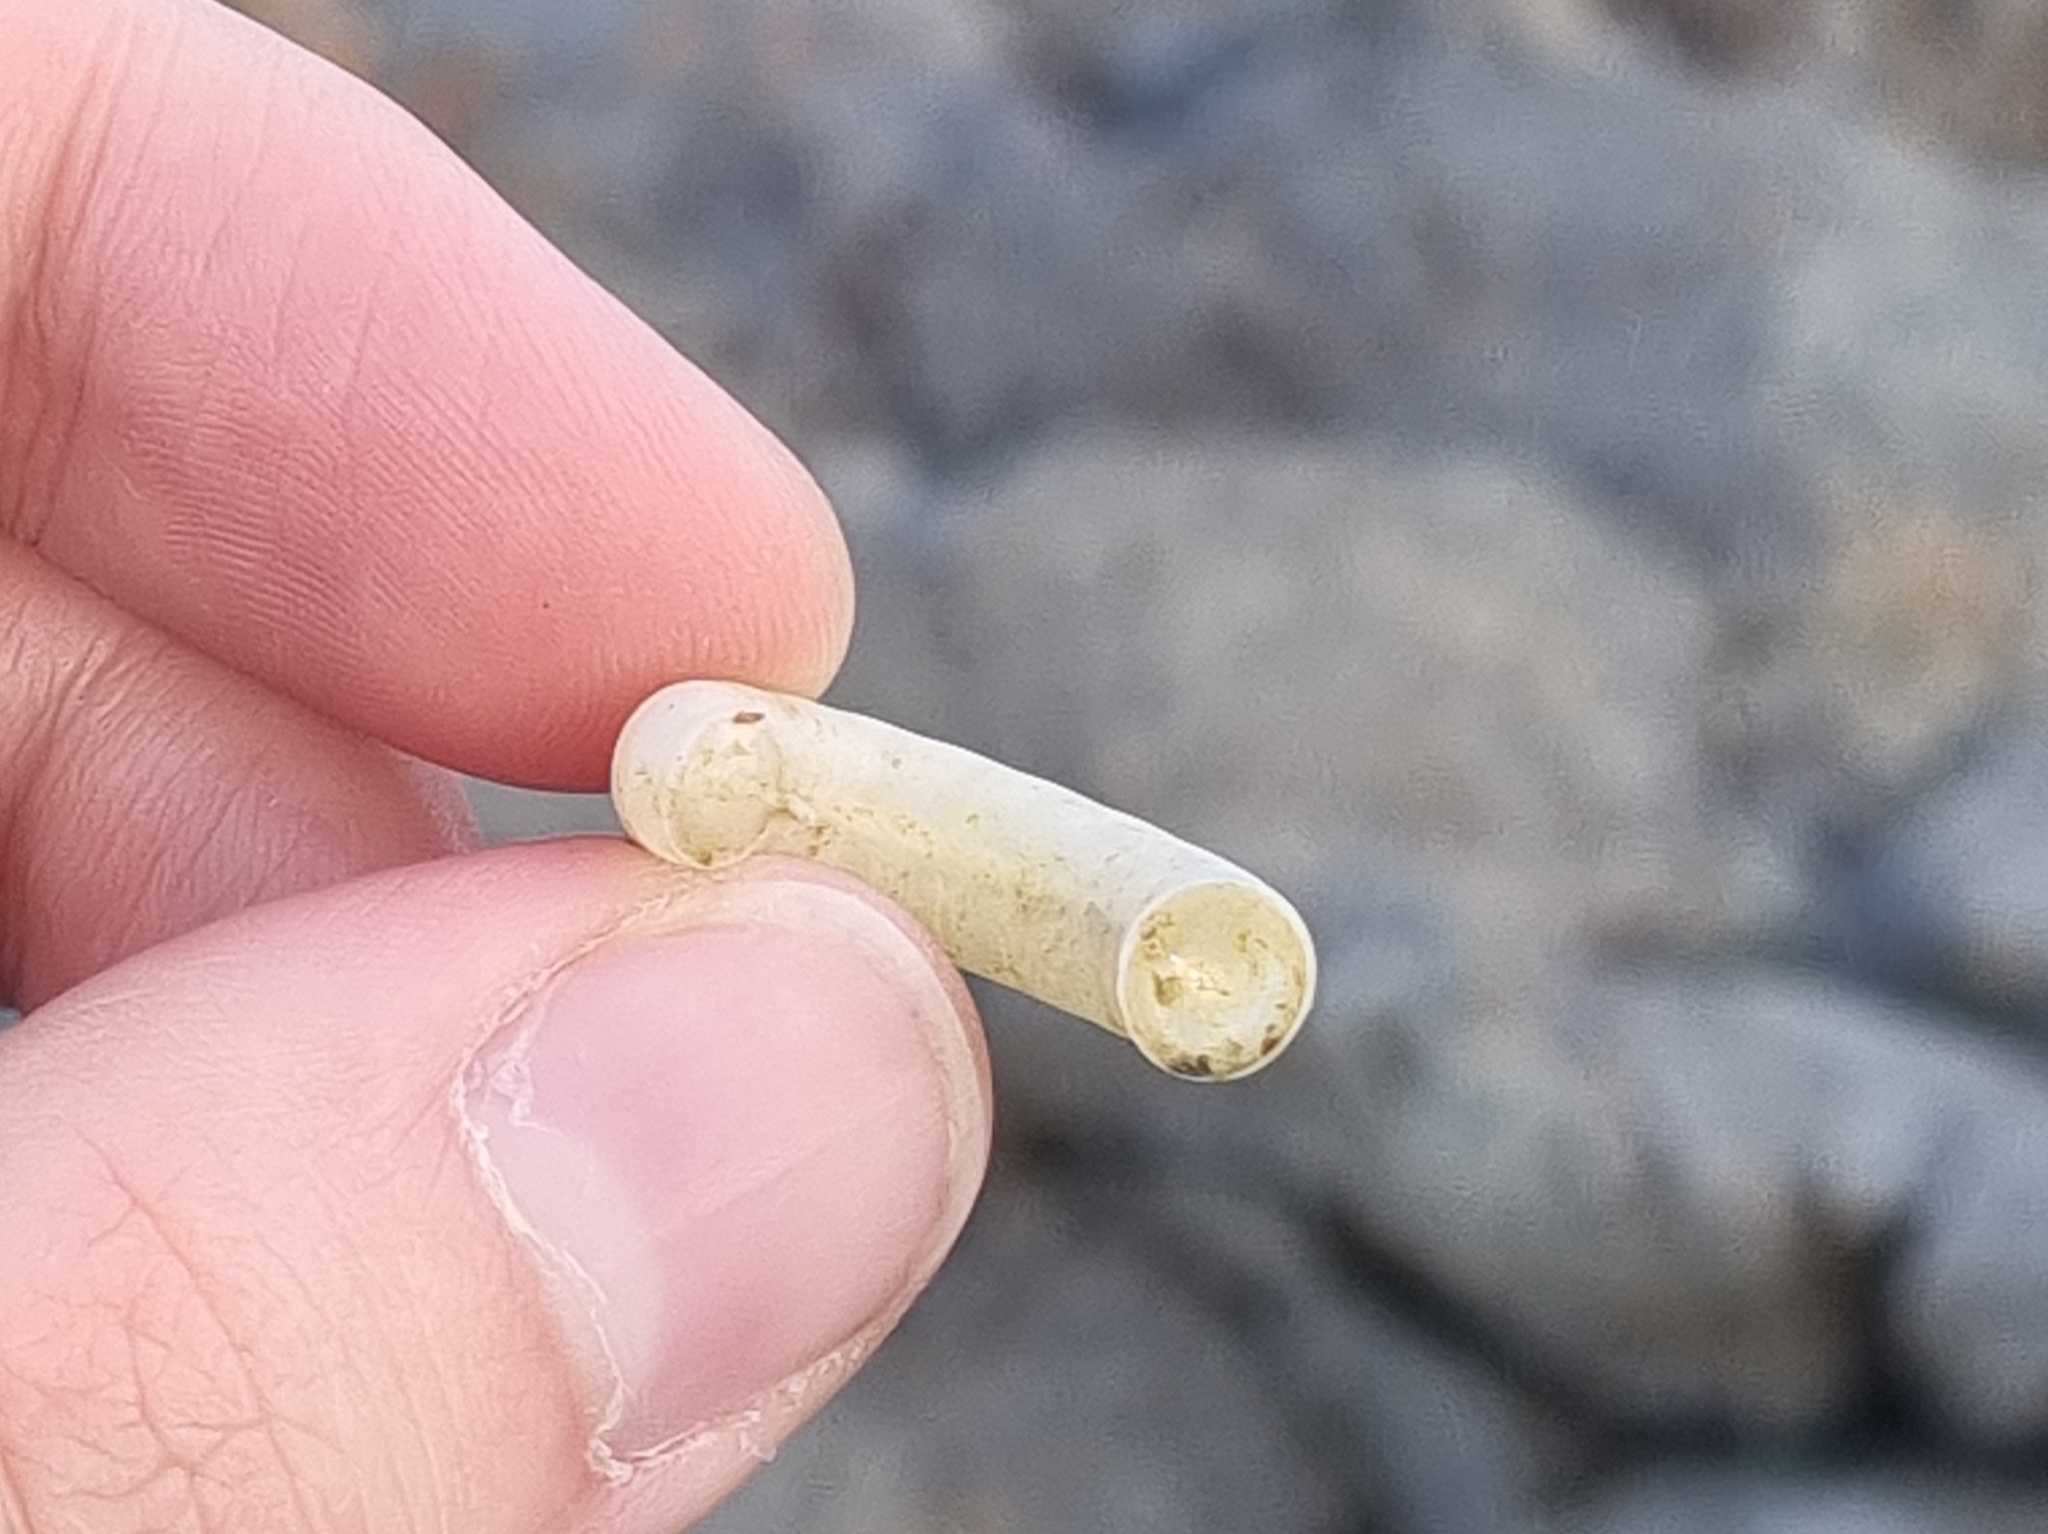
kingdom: Animalia
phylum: Mollusca
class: Cephalopoda
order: Spirulida
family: Spirulidae
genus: Spirula
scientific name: Spirula spirula
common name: Ram's horn squid
